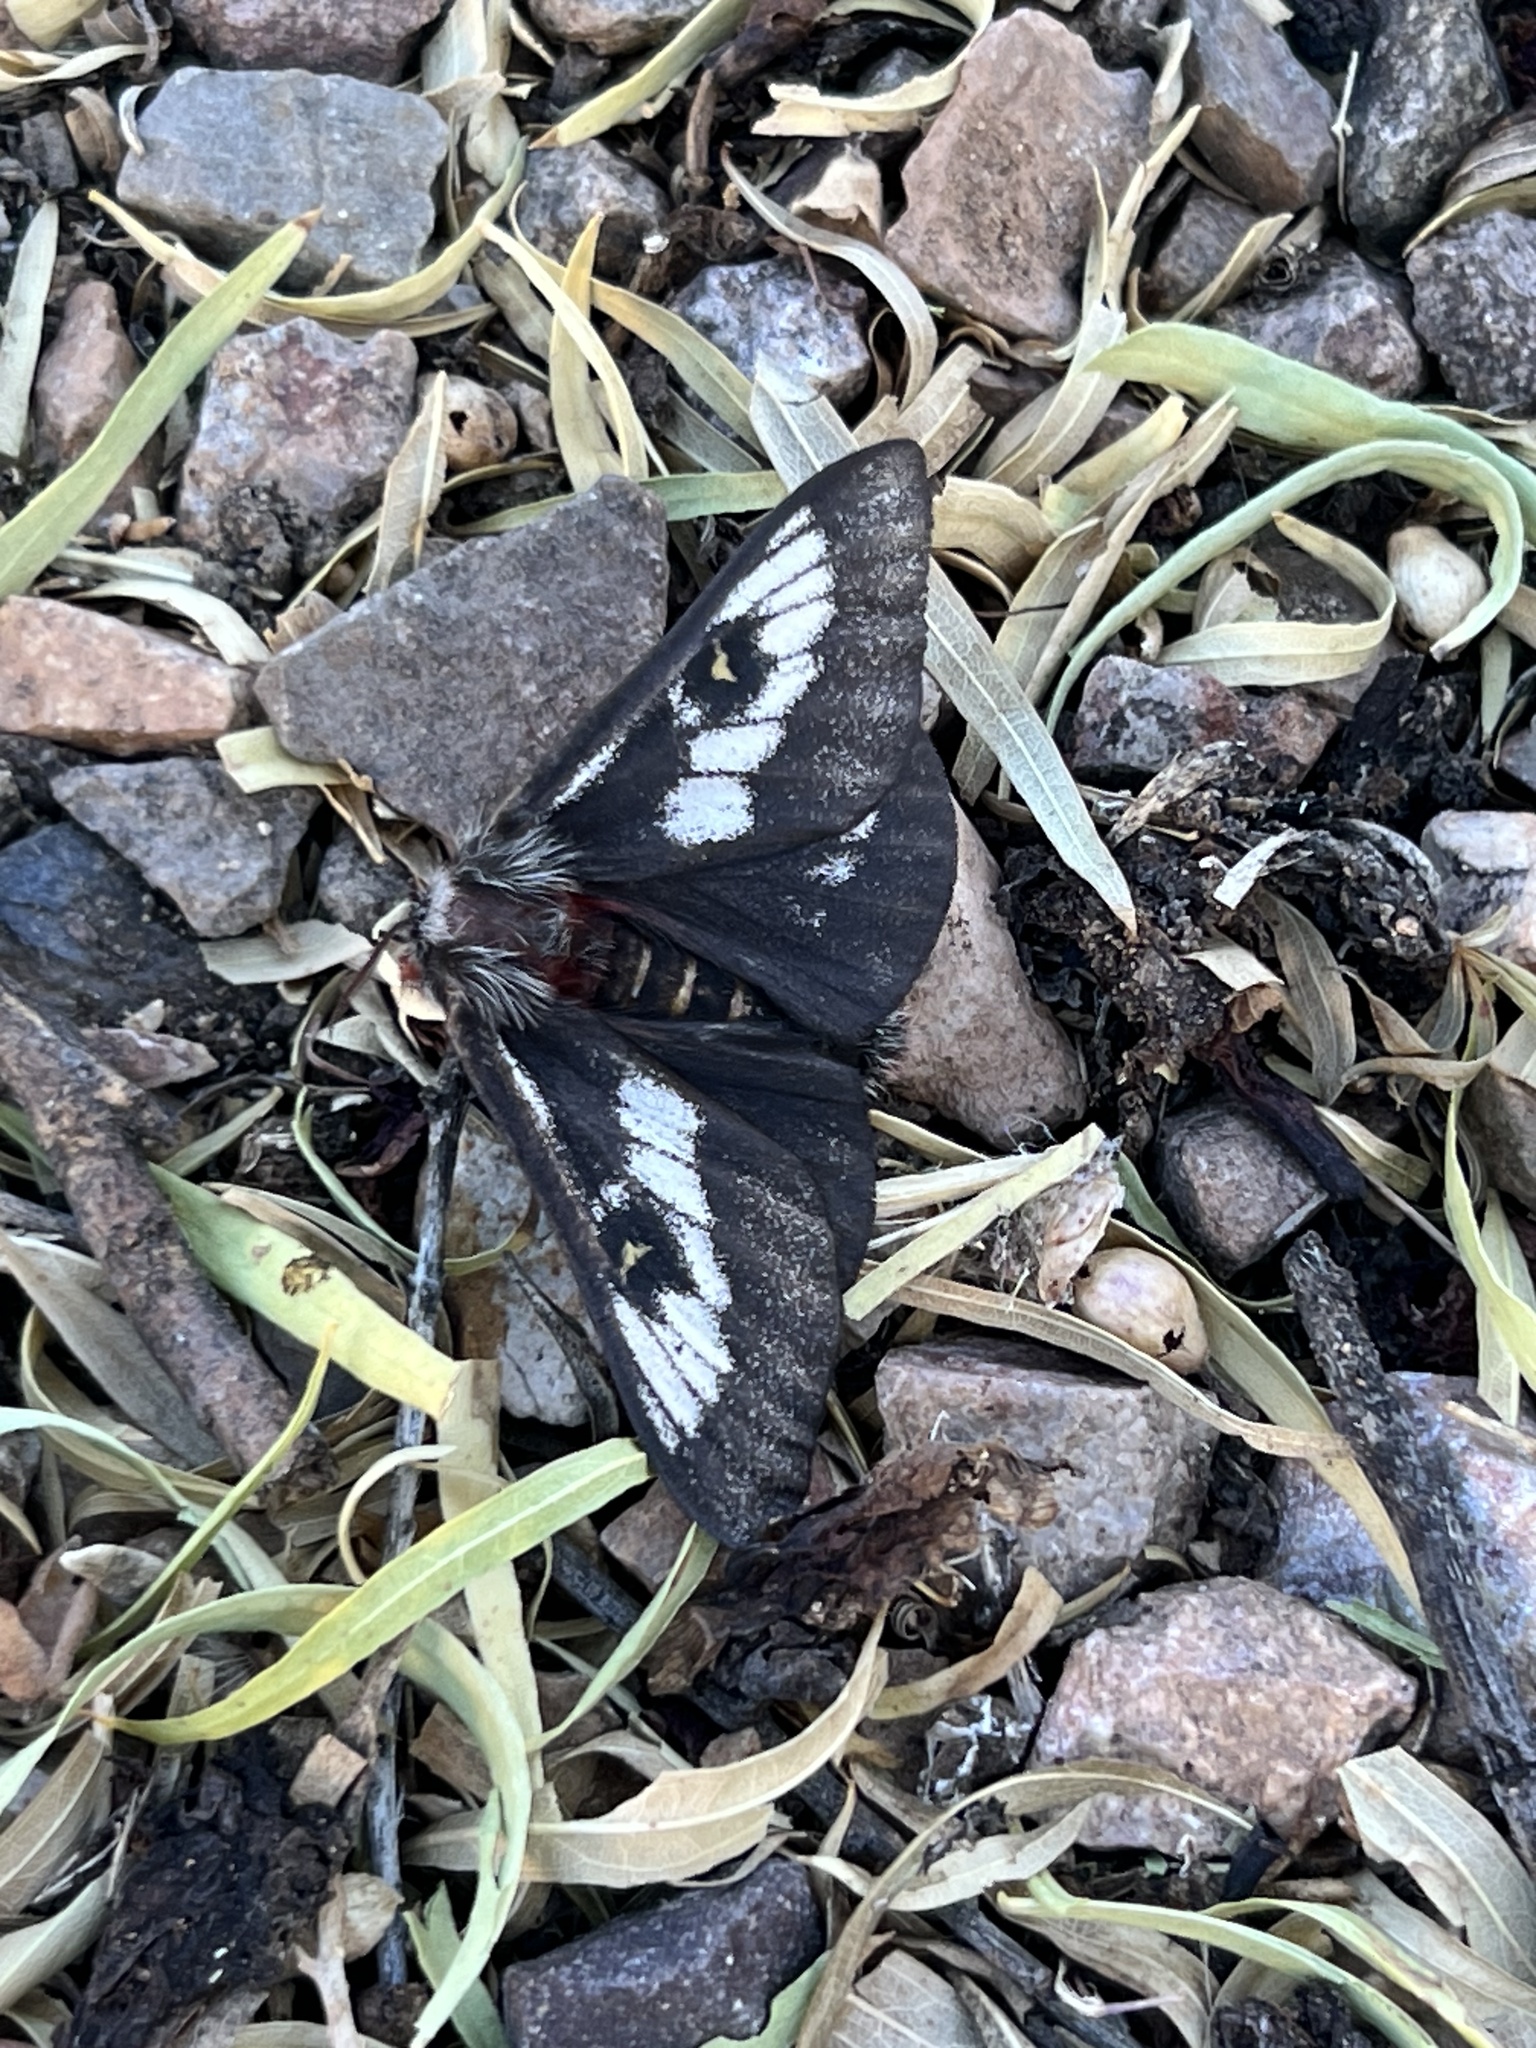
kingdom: Animalia
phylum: Arthropoda
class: Insecta
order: Lepidoptera
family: Saturniidae
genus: Hemileuca
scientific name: Hemileuca juno
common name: Juno buckmoth
